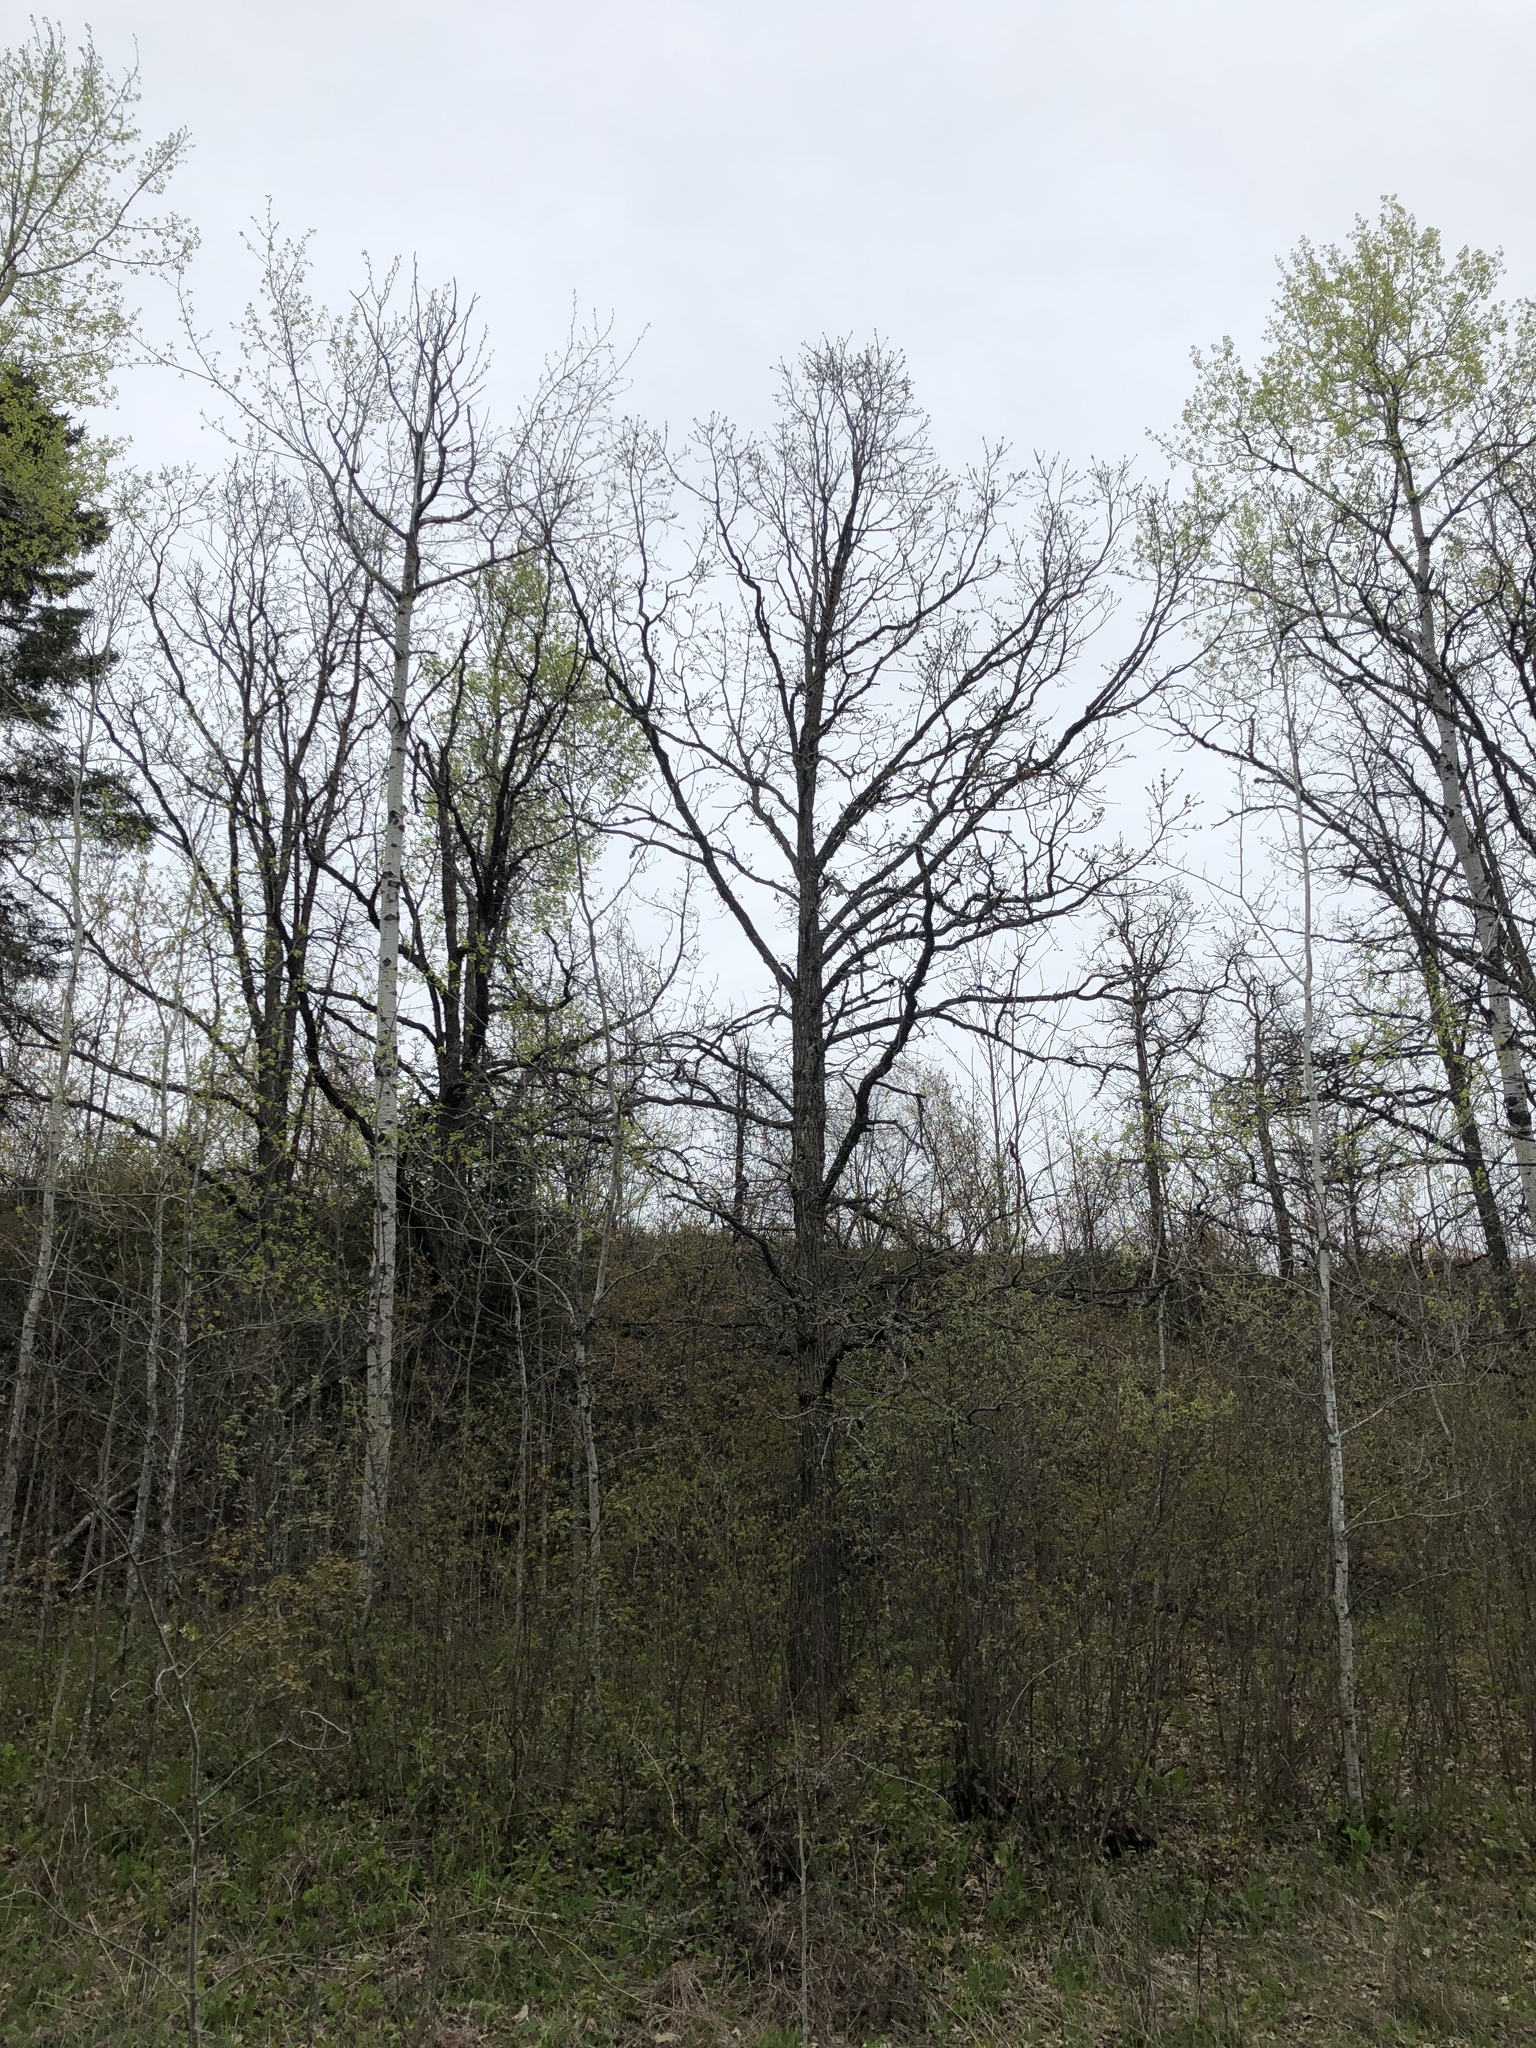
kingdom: Plantae
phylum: Tracheophyta
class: Magnoliopsida
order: Fagales
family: Fagaceae
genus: Quercus
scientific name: Quercus macrocarpa
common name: Bur oak
